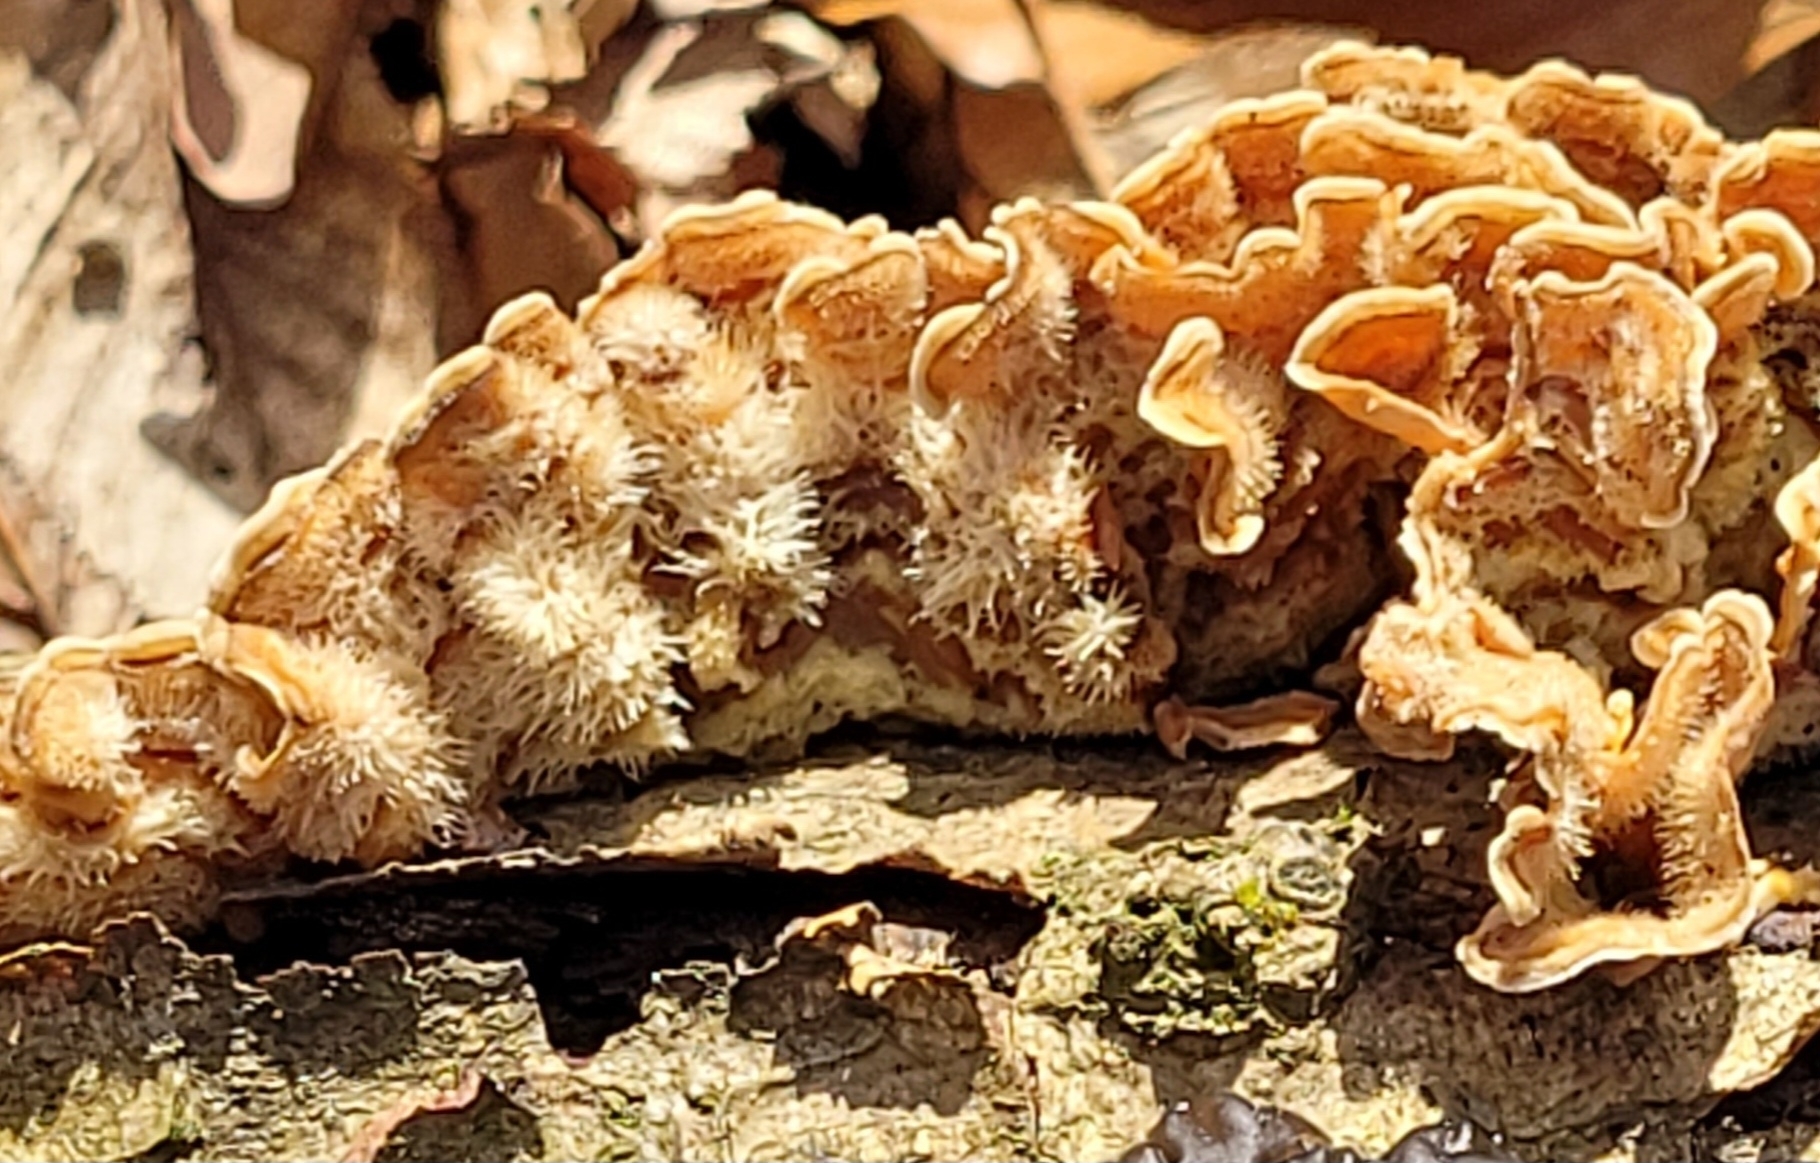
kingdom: Fungi
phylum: Basidiomycota
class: Agaricomycetes
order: Russulales
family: Stereaceae
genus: Stereum
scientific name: Stereum hirsutum
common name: Hairy curtain crust
